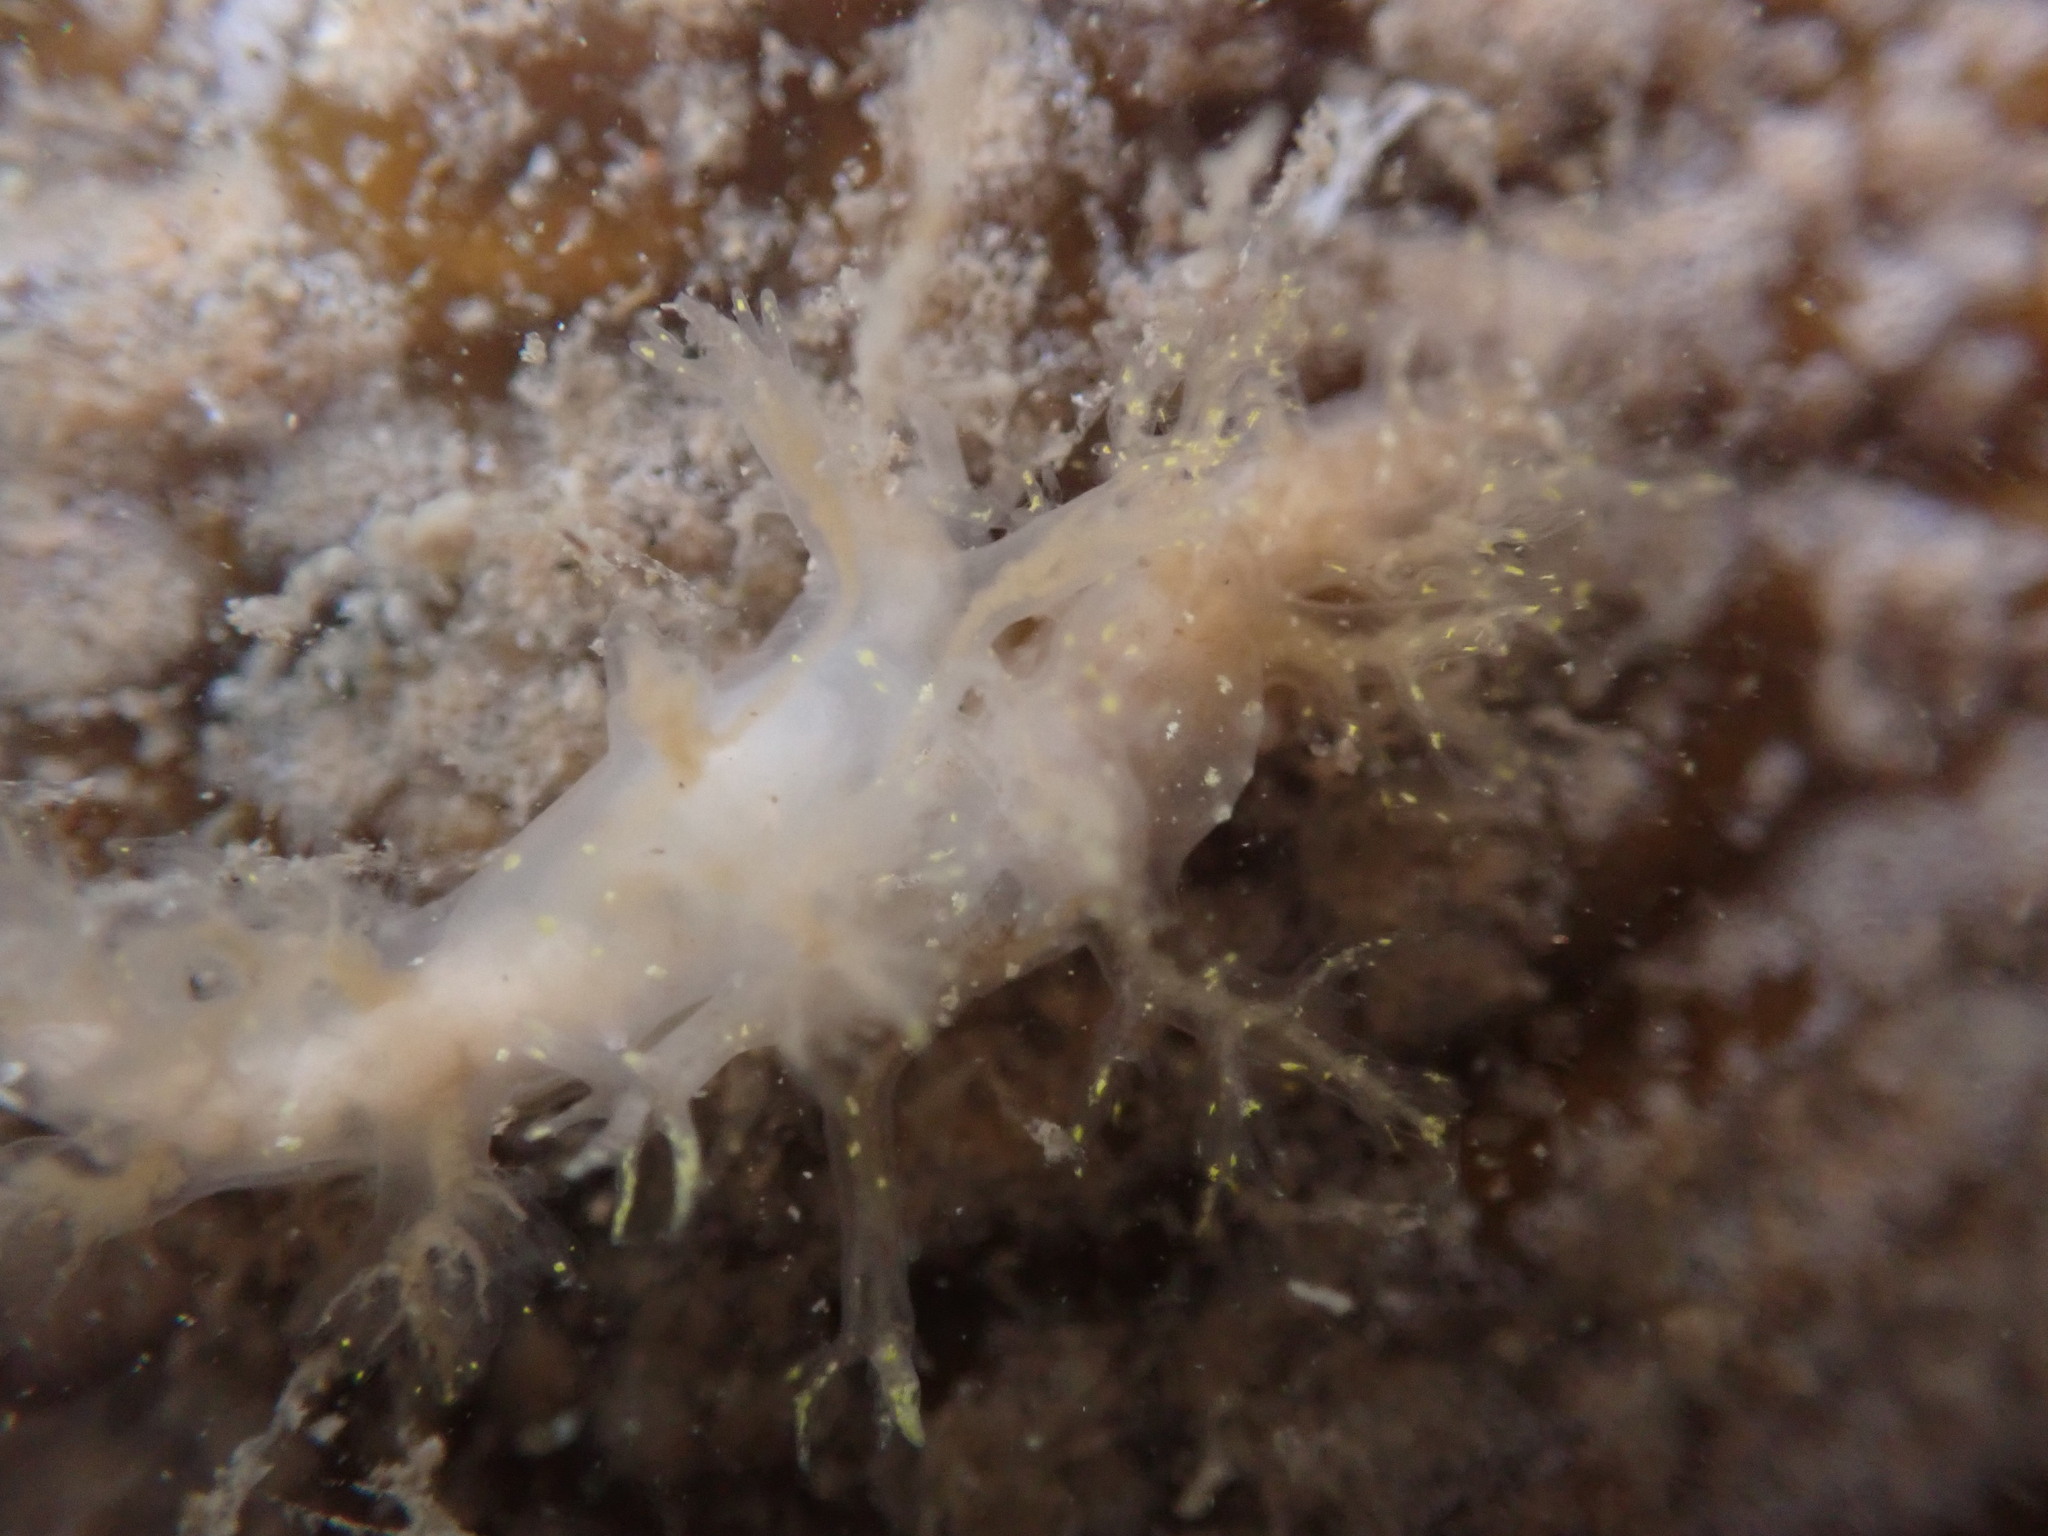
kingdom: Animalia
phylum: Mollusca
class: Gastropoda
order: Nudibranchia
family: Dendronotidae
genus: Dendronotus
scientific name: Dendronotus venustus
